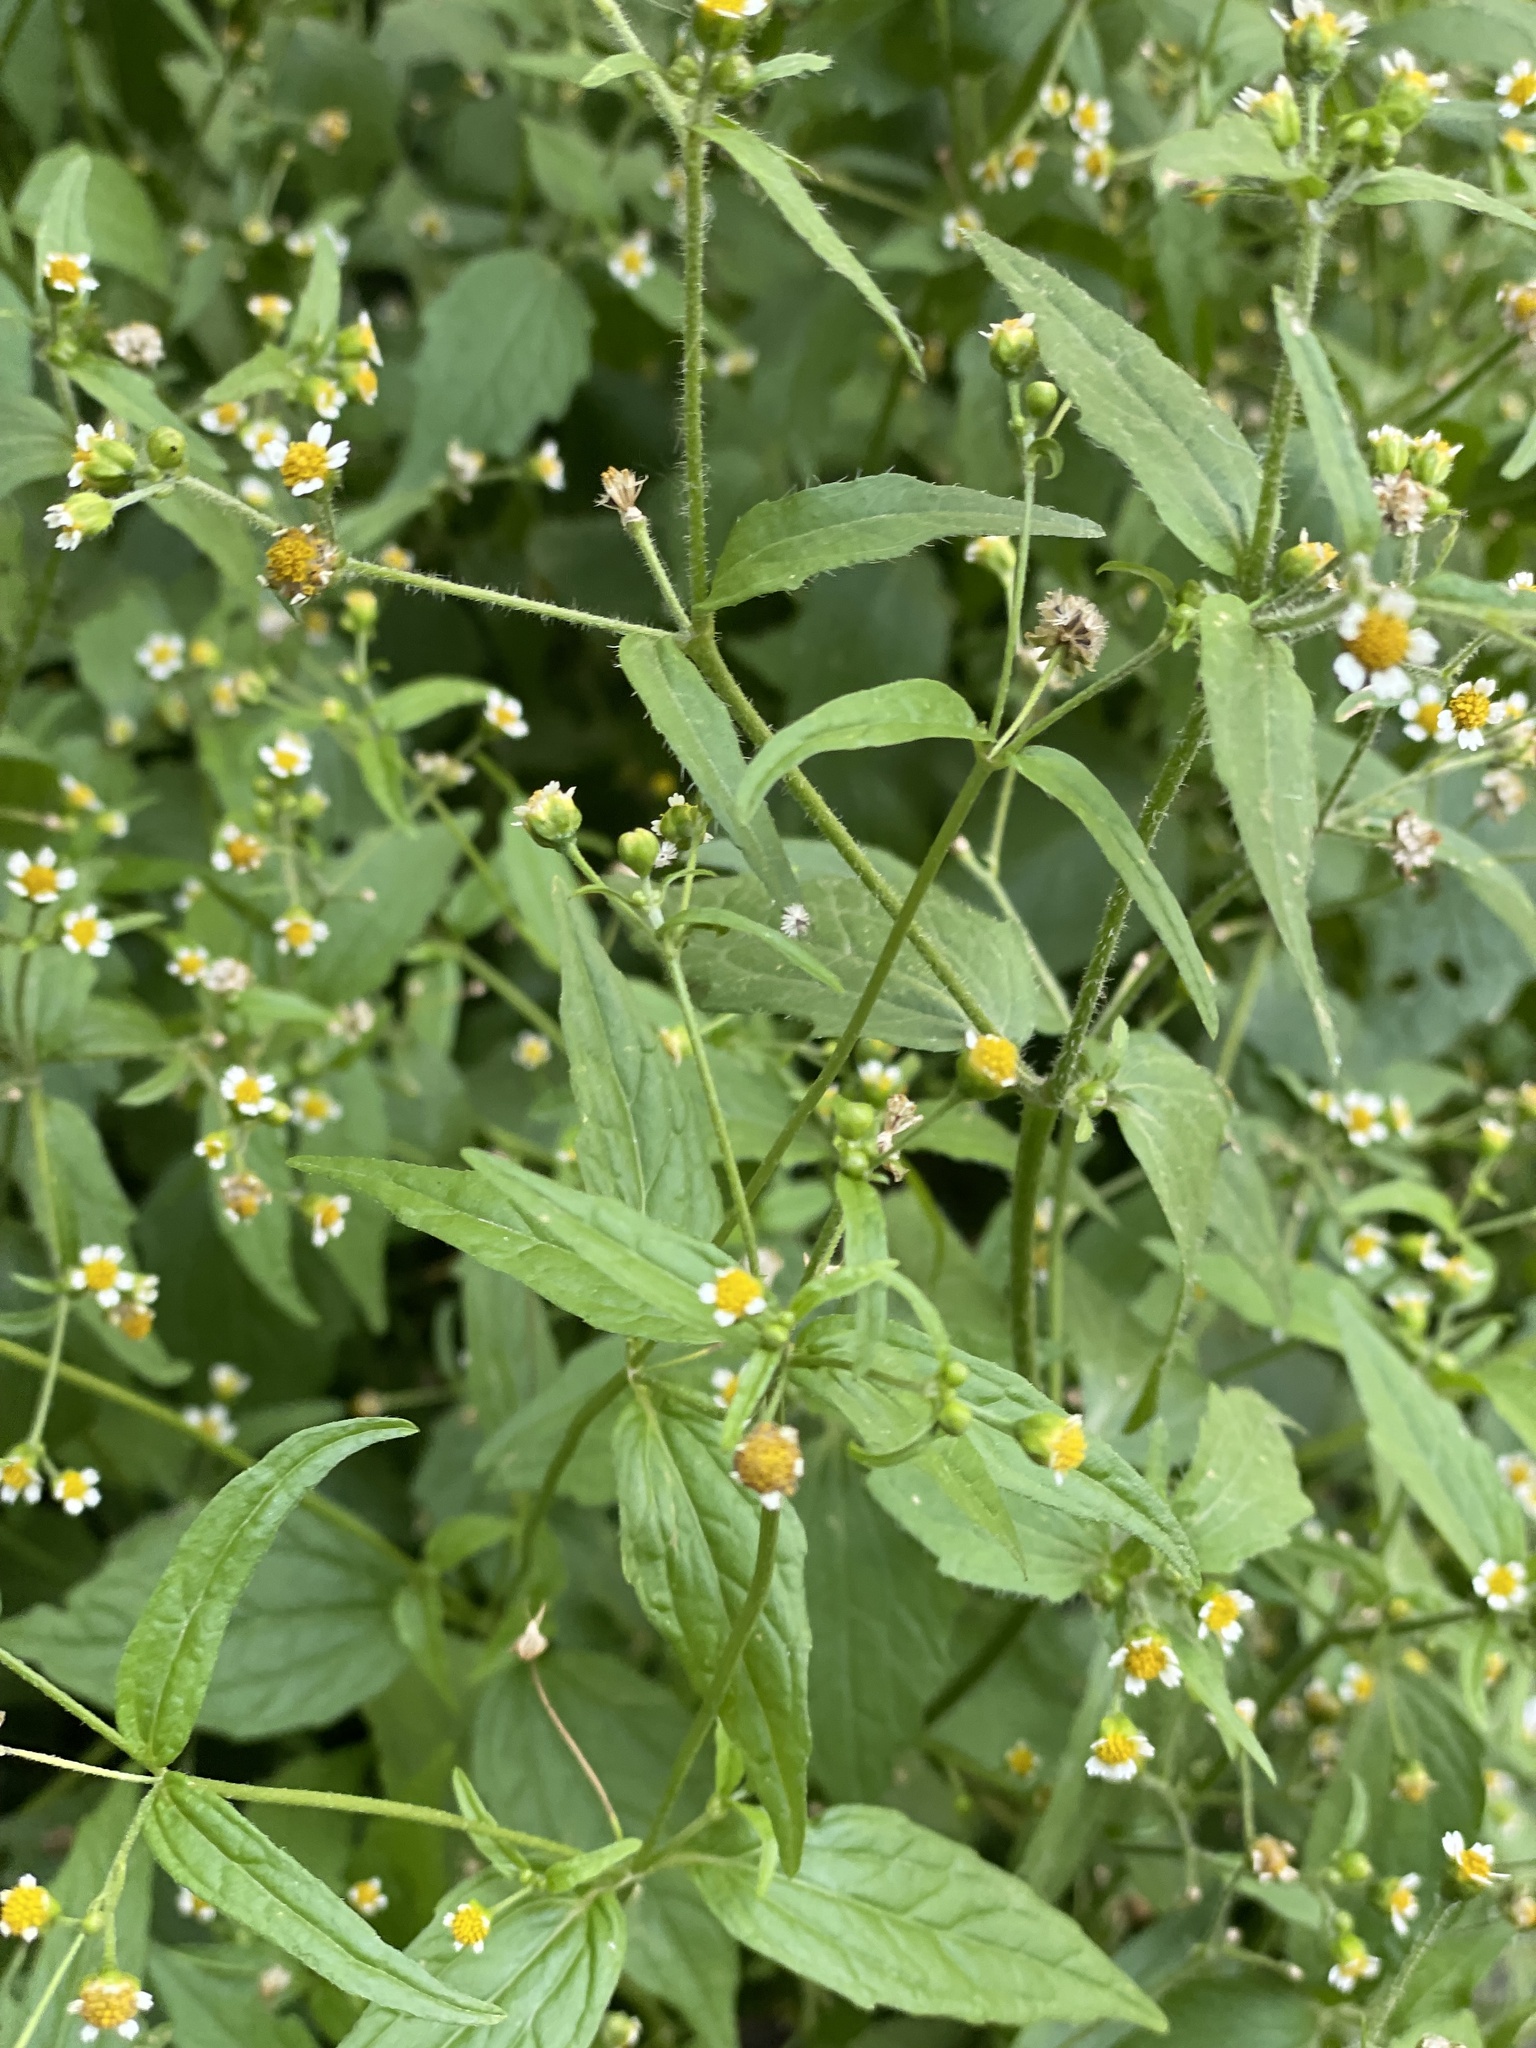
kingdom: Plantae
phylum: Tracheophyta
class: Magnoliopsida
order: Asterales
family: Asteraceae
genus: Galinsoga
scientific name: Galinsoga quadriradiata
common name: Shaggy soldier
